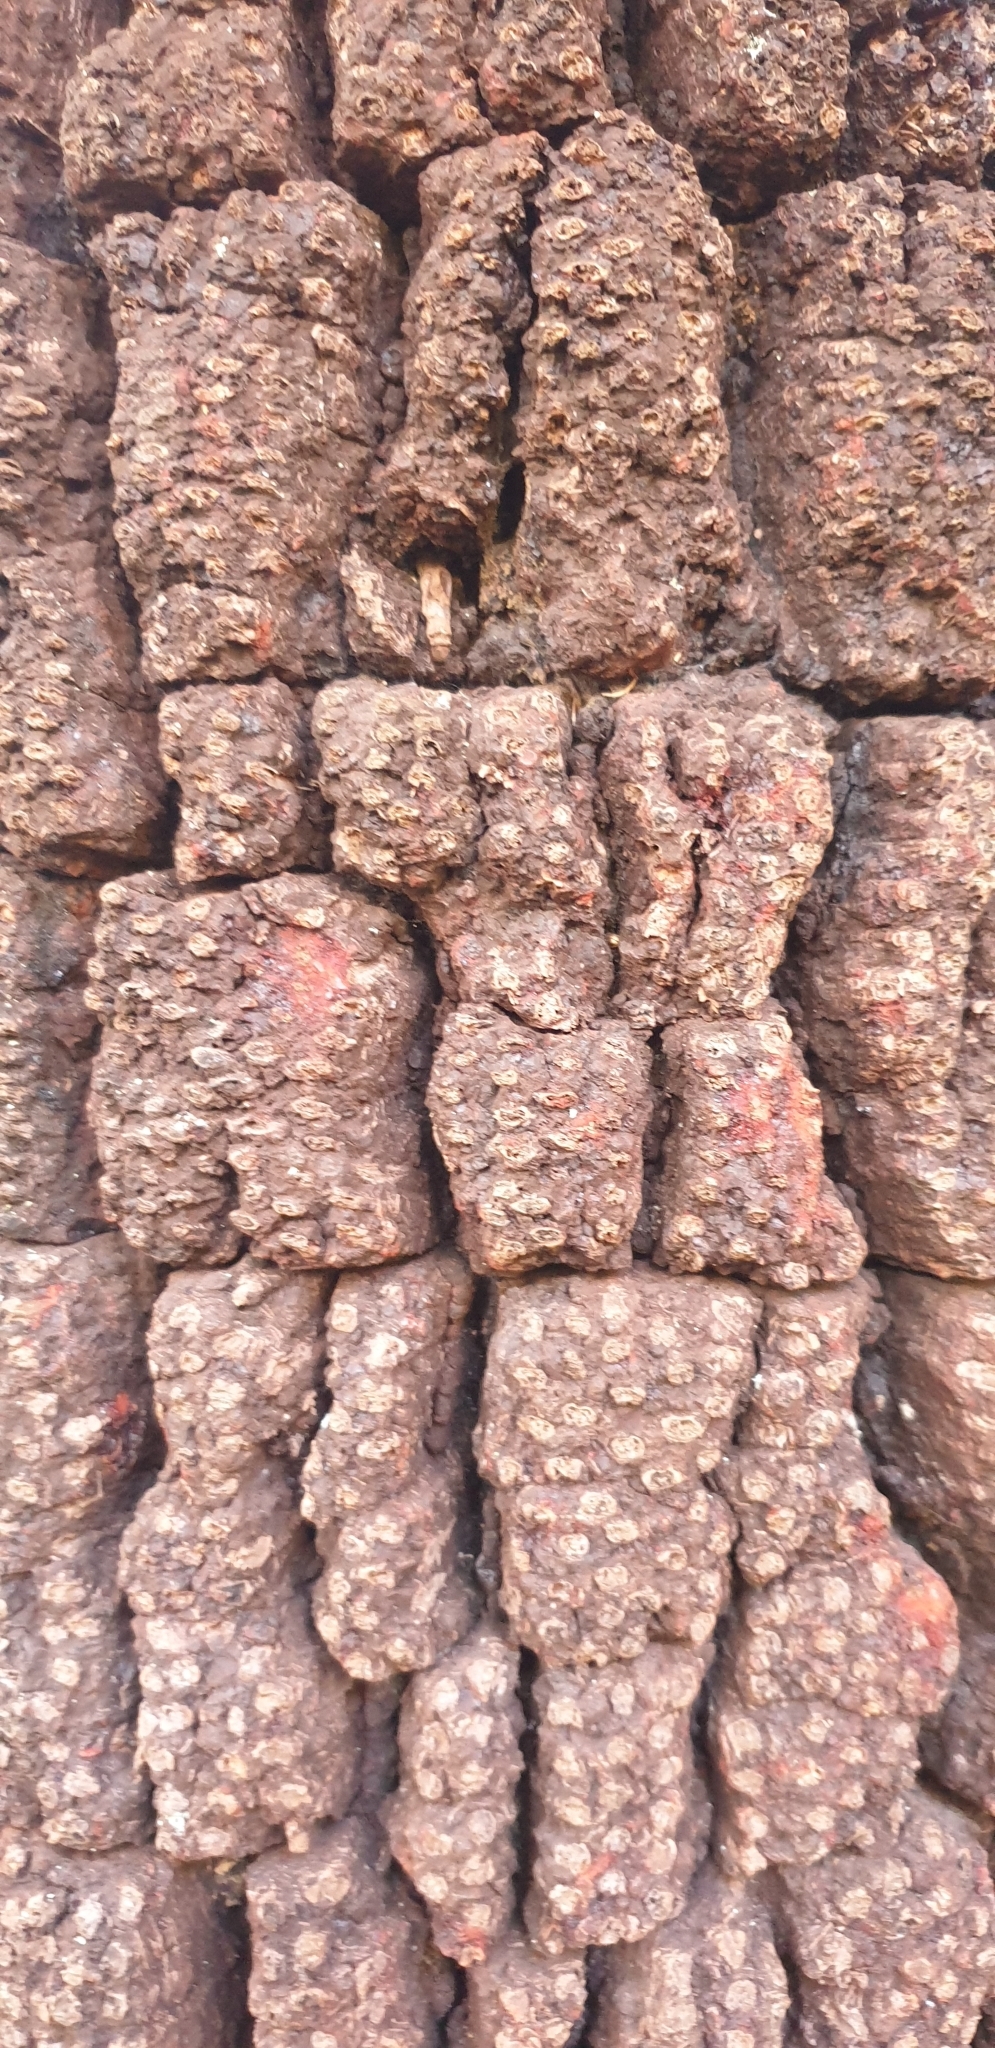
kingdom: Plantae
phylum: Tracheophyta
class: Liliopsida
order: Asparagales
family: Asphodelaceae
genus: Xanthorrhoea
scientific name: Xanthorrhoea latifolia
